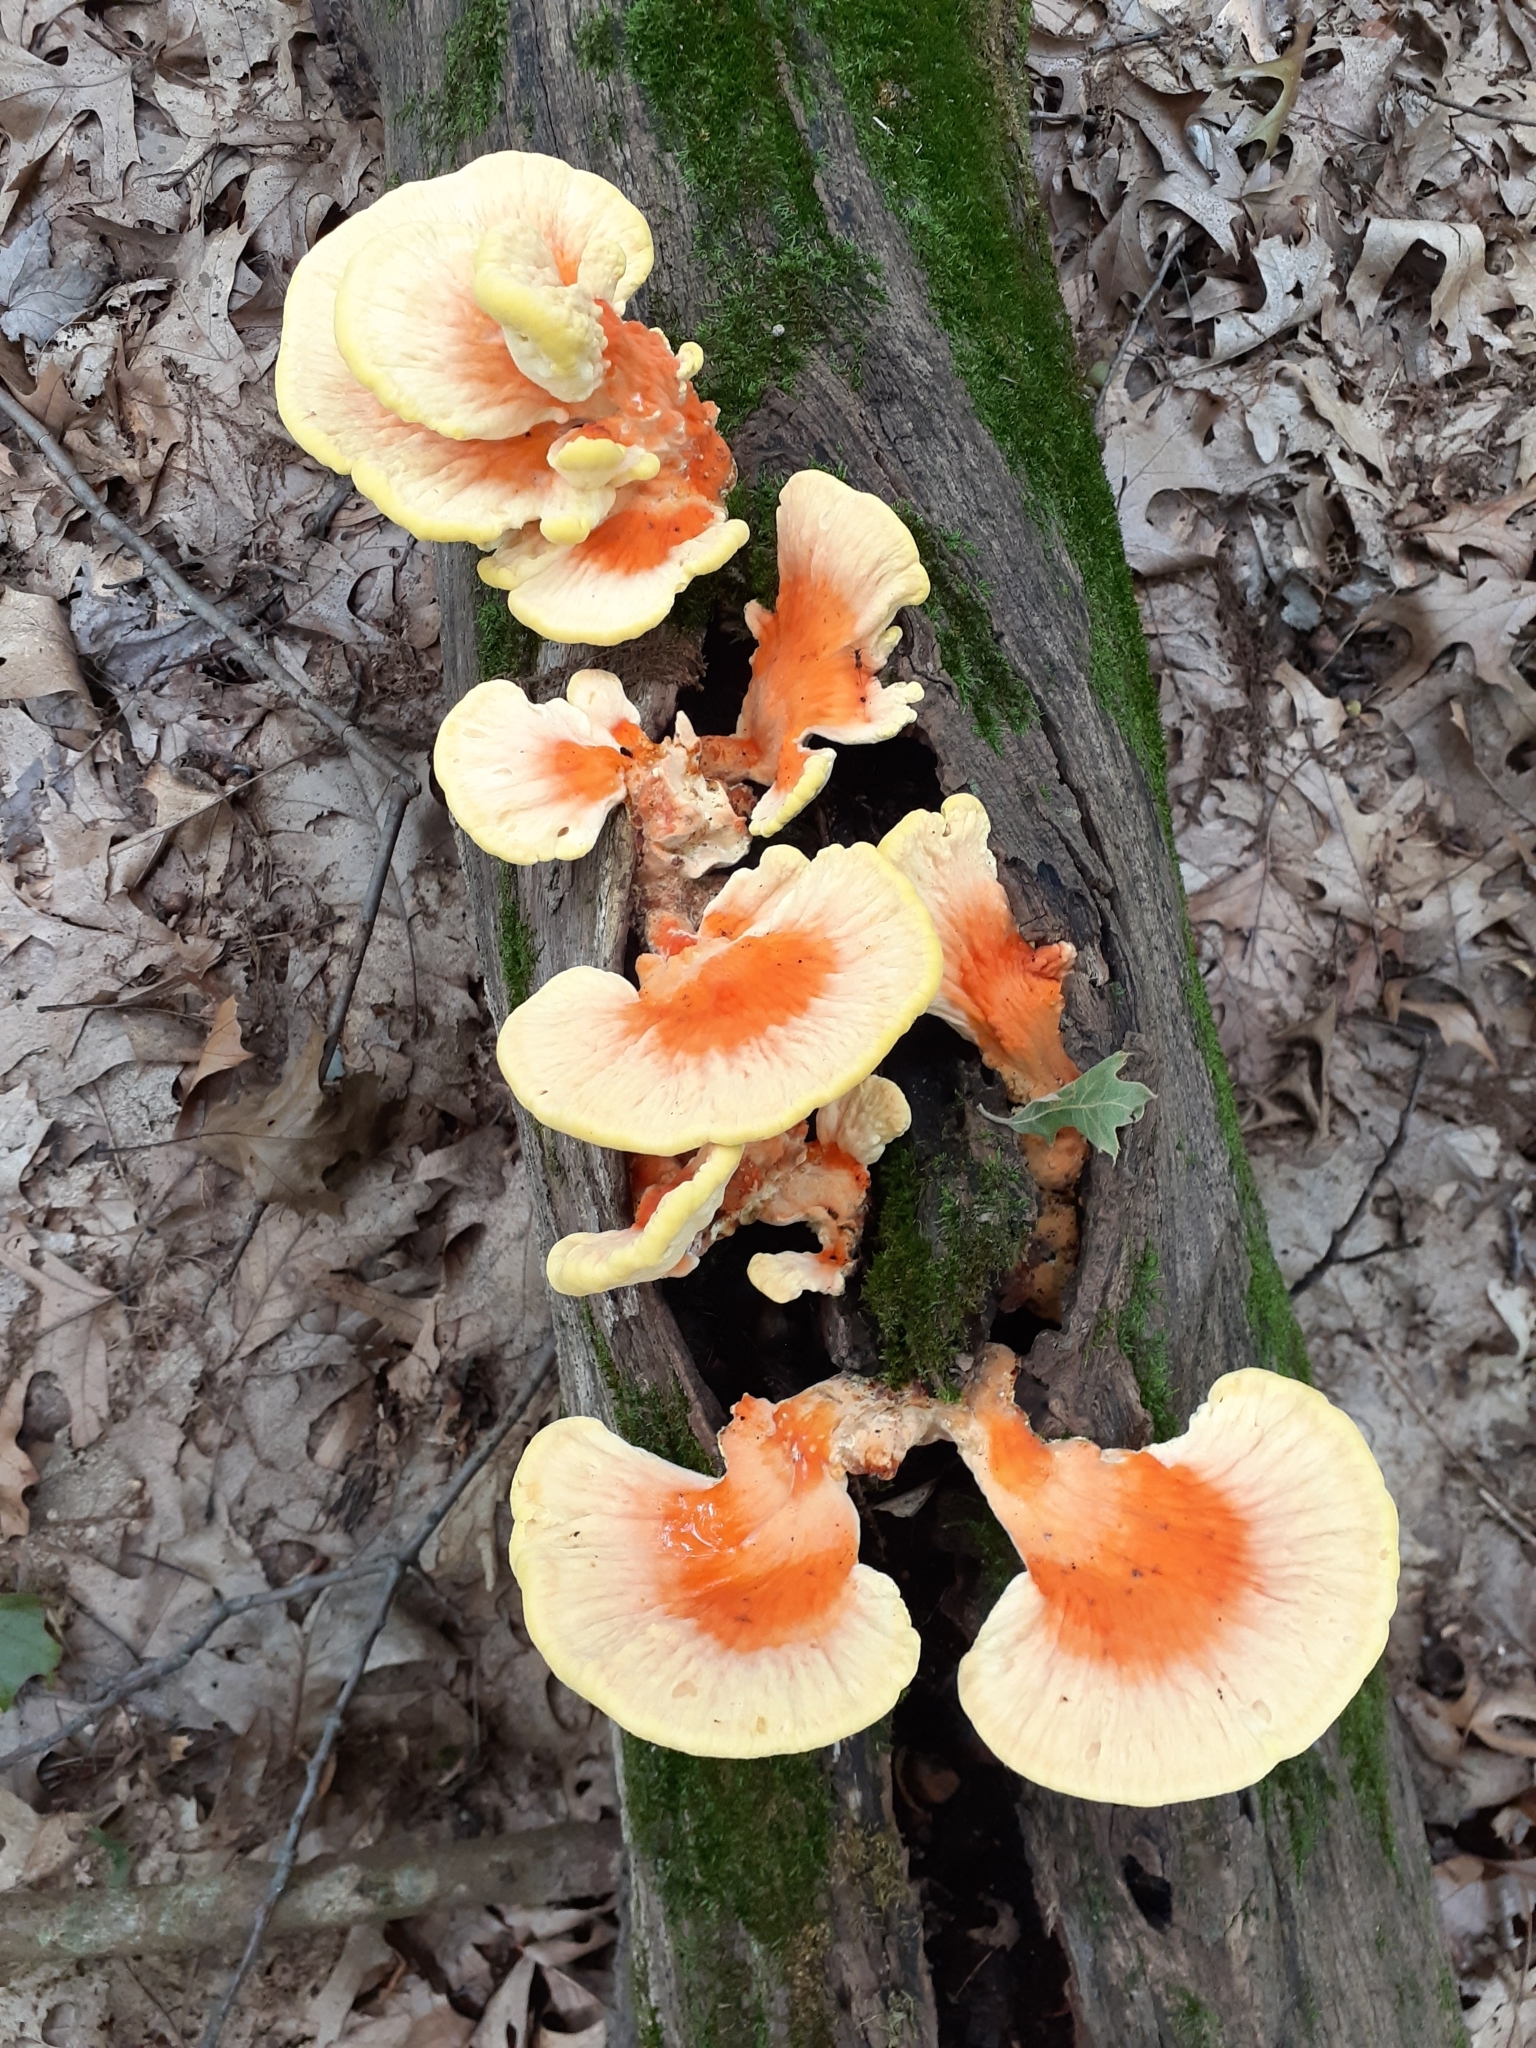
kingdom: Fungi
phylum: Basidiomycota
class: Agaricomycetes
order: Polyporales
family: Laetiporaceae
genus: Laetiporus
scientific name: Laetiporus sulphureus
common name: Chicken of the woods
